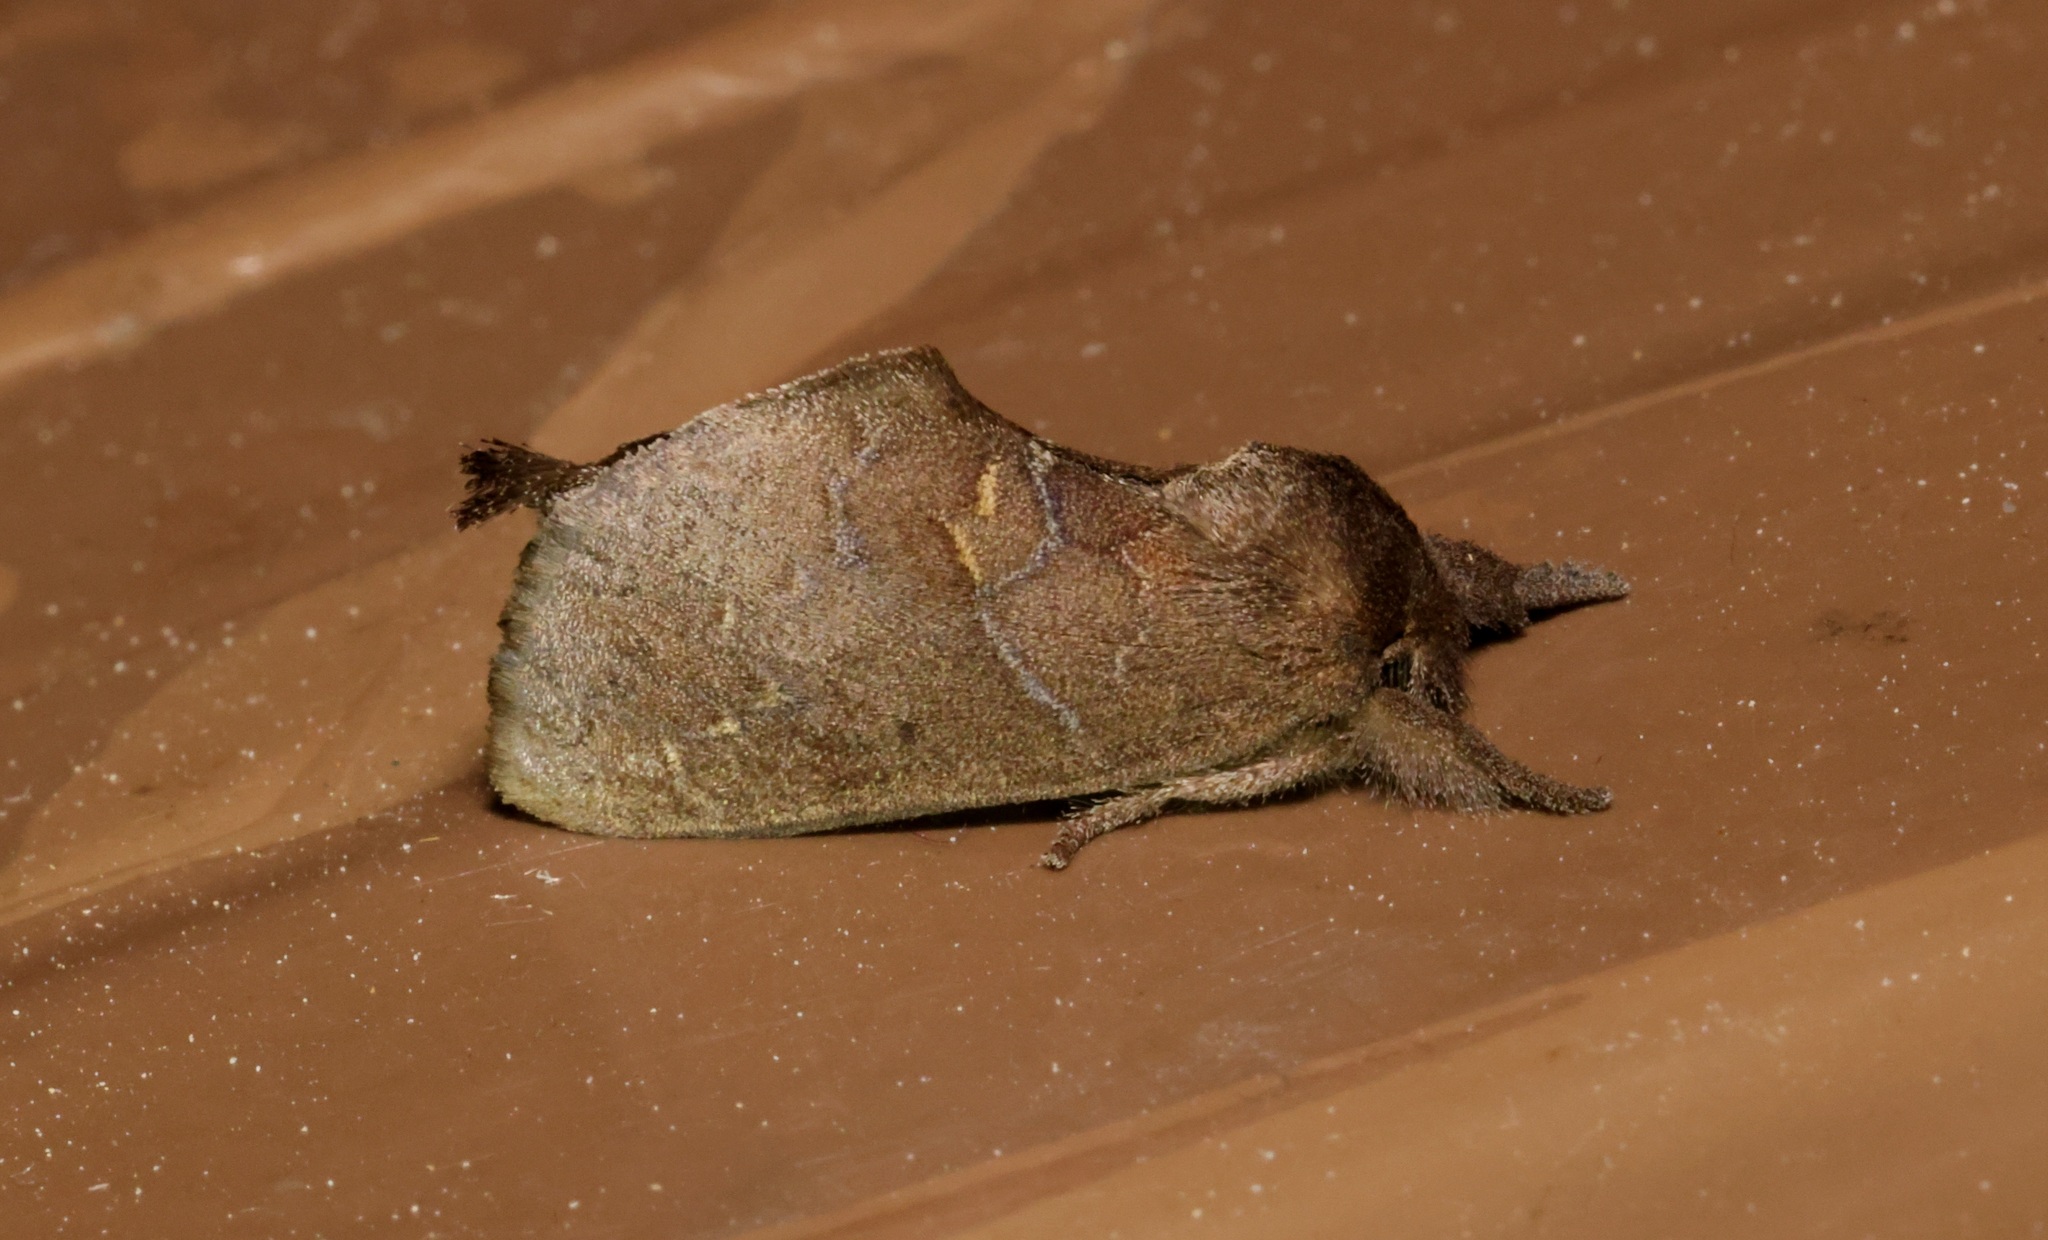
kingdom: Animalia
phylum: Arthropoda
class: Insecta
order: Lepidoptera
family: Notodontidae
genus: Micromelalopha
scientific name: Micromelalopha baibarana
